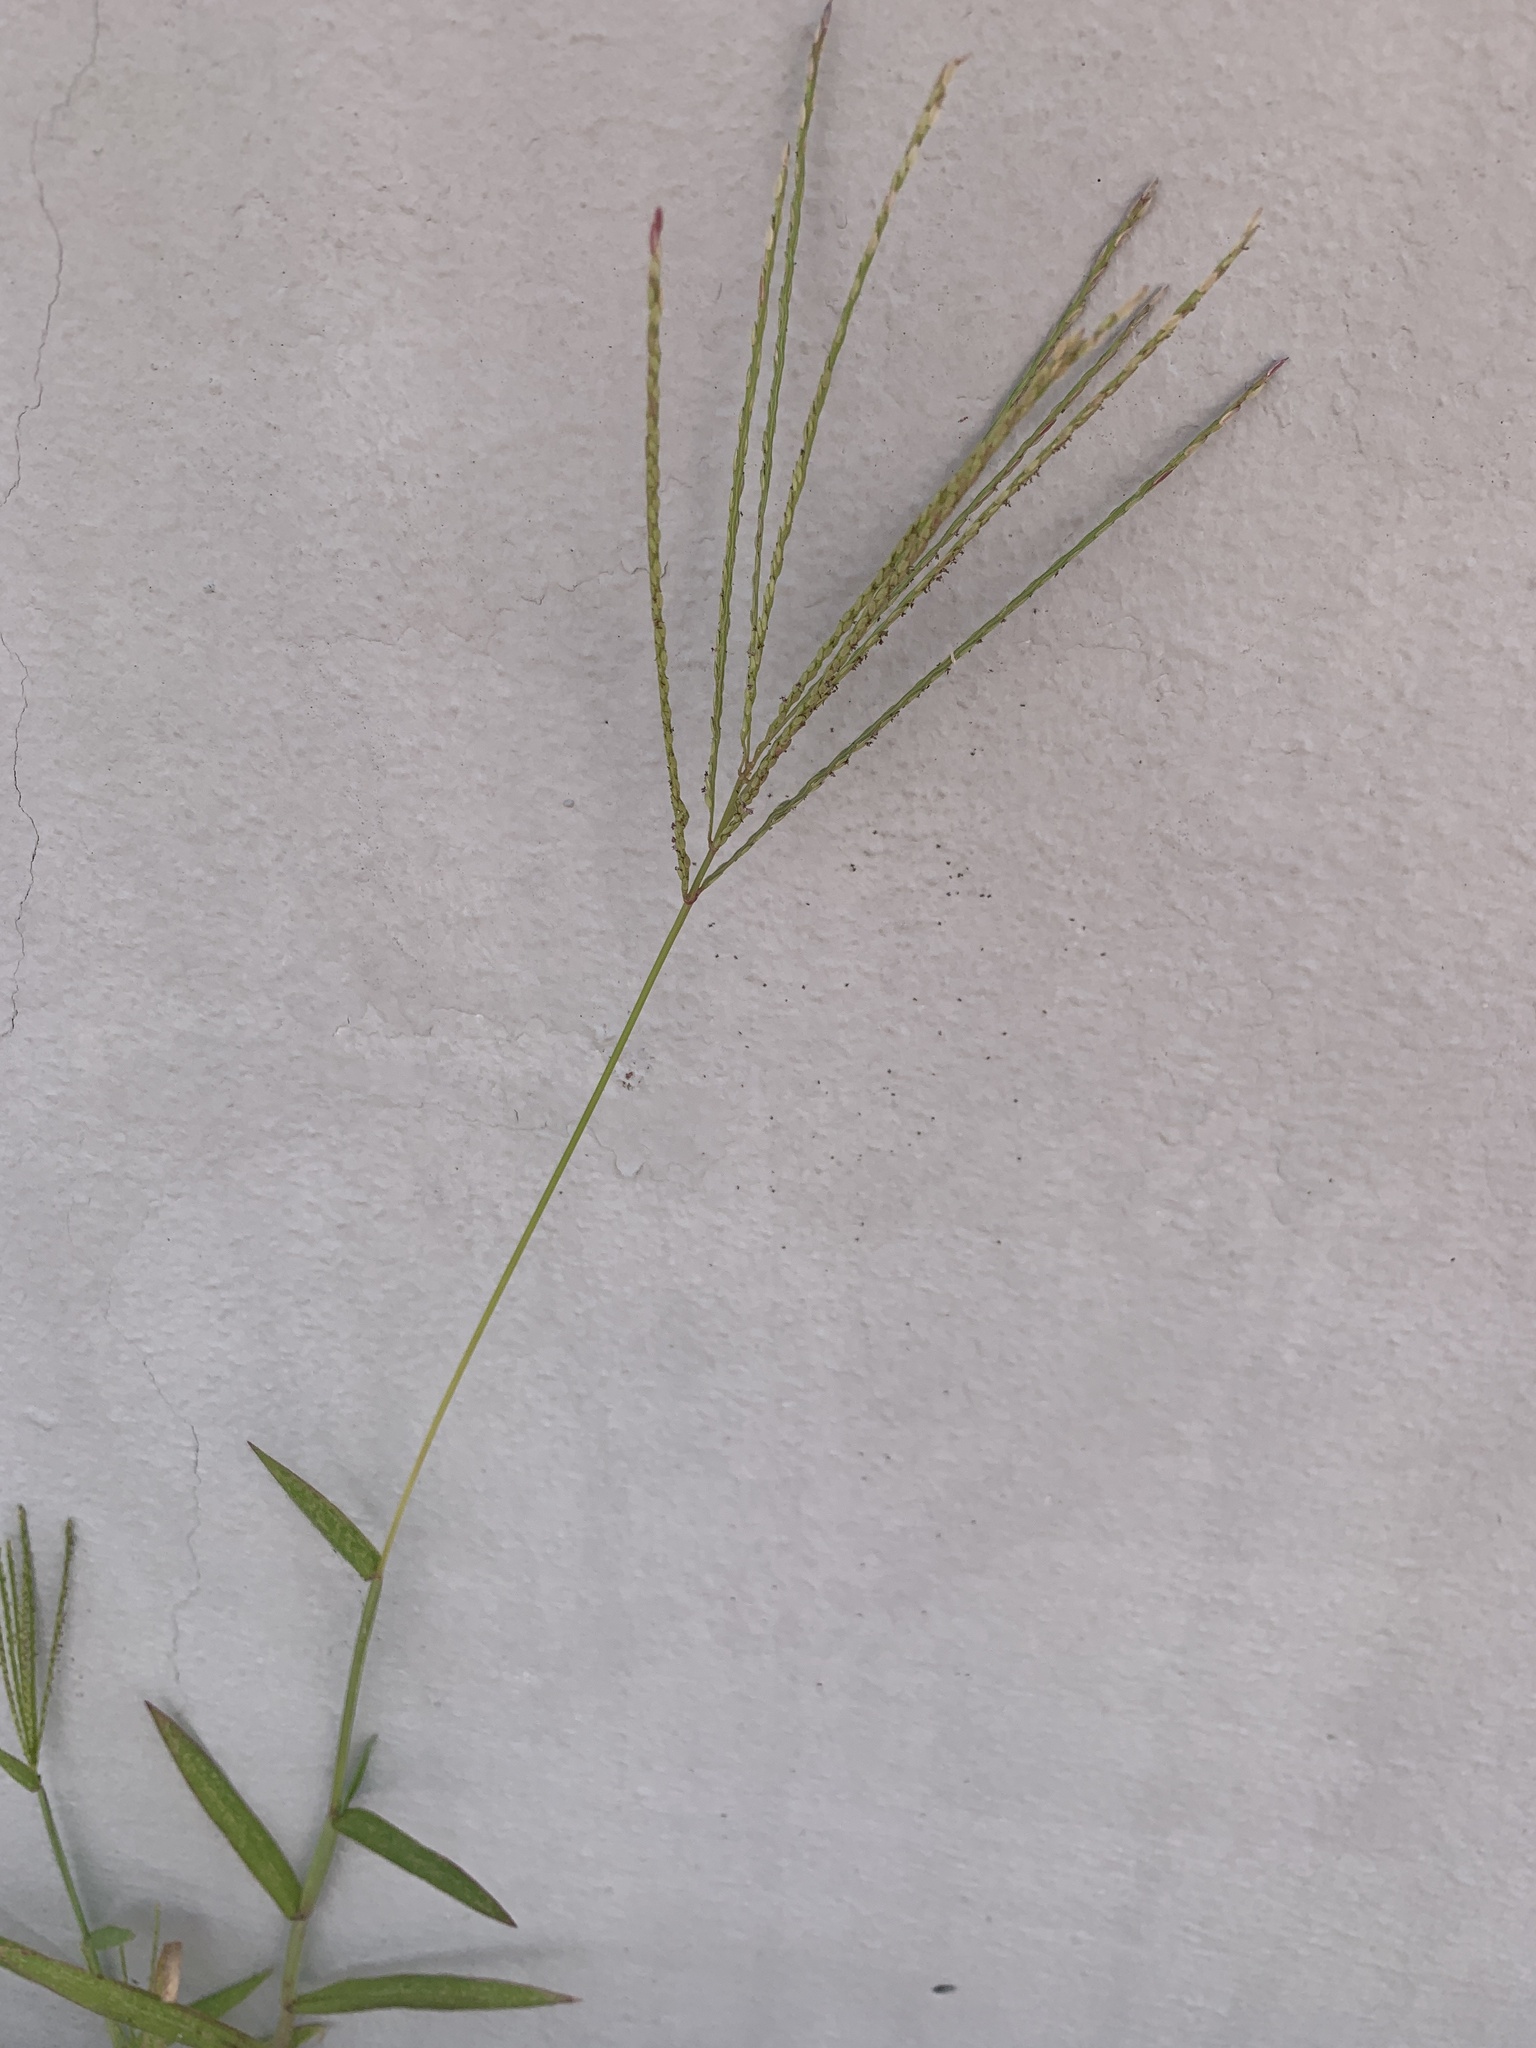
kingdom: Plantae
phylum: Tracheophyta
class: Liliopsida
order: Poales
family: Poaceae
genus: Digitaria
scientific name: Digitaria sanguinalis
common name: Hairy crabgrass
